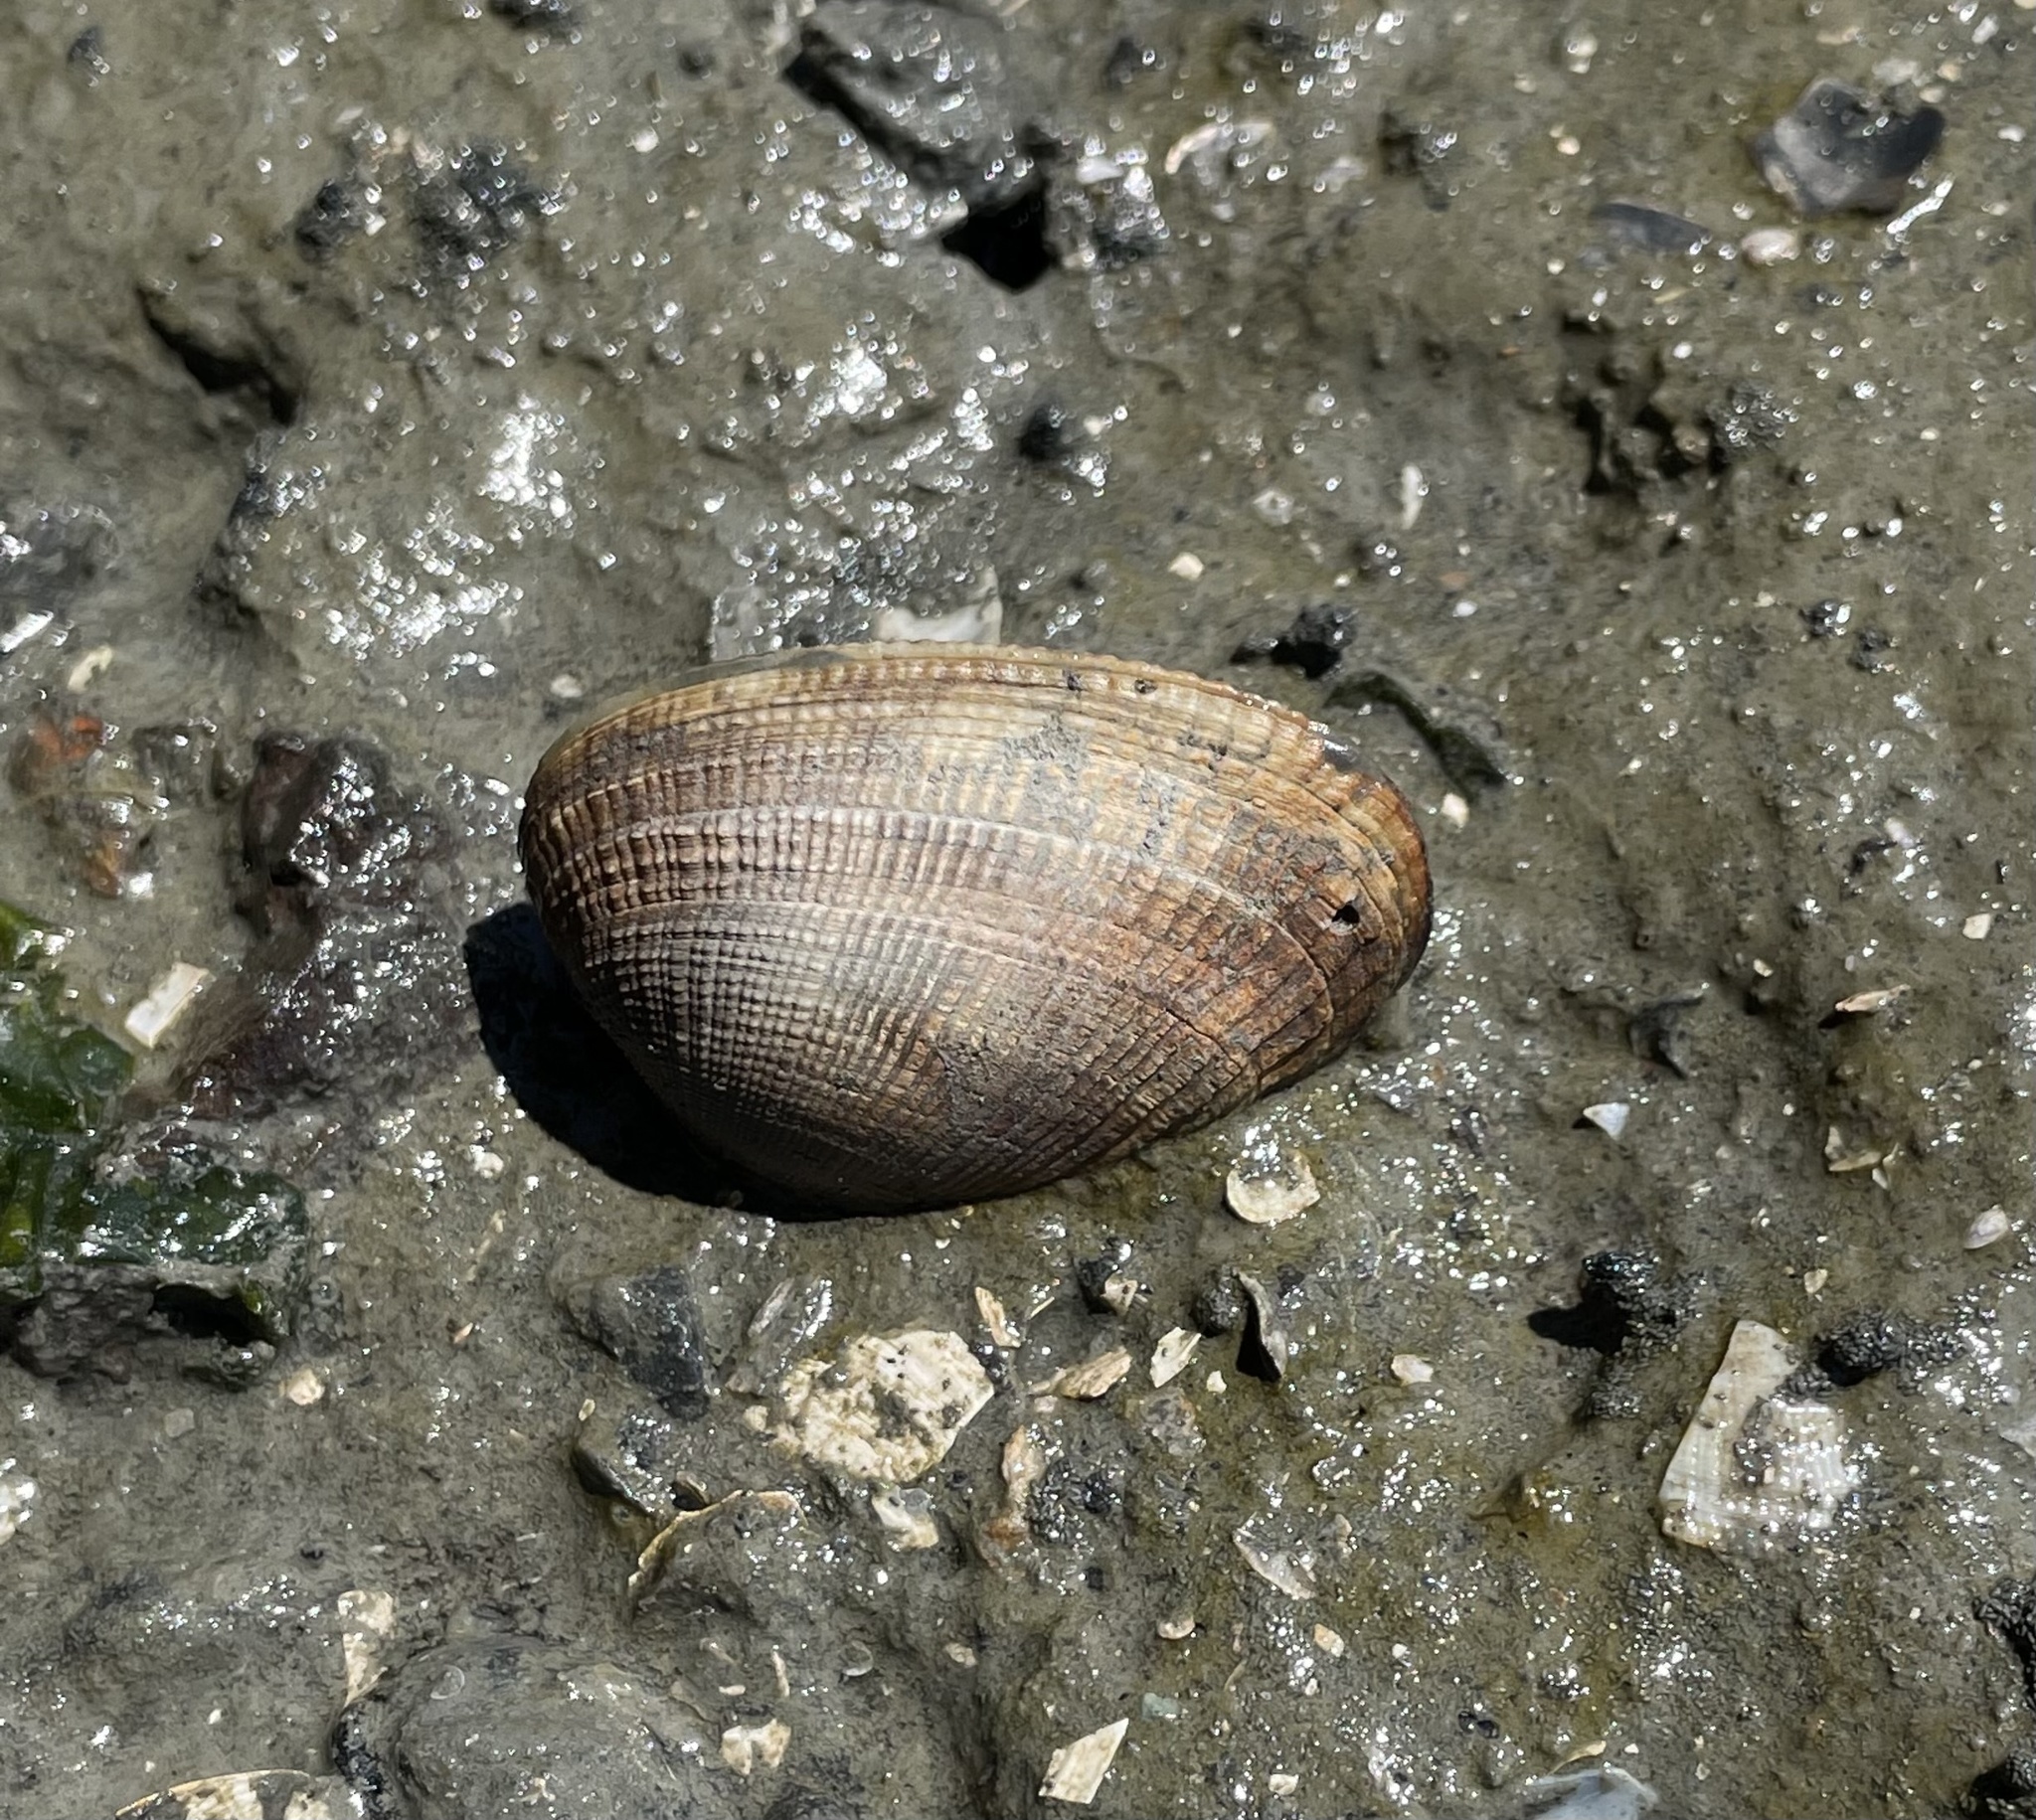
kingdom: Animalia
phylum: Mollusca
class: Bivalvia
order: Venerida
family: Veneridae
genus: Ruditapes
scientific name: Ruditapes philippinarum
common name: Manila clam
